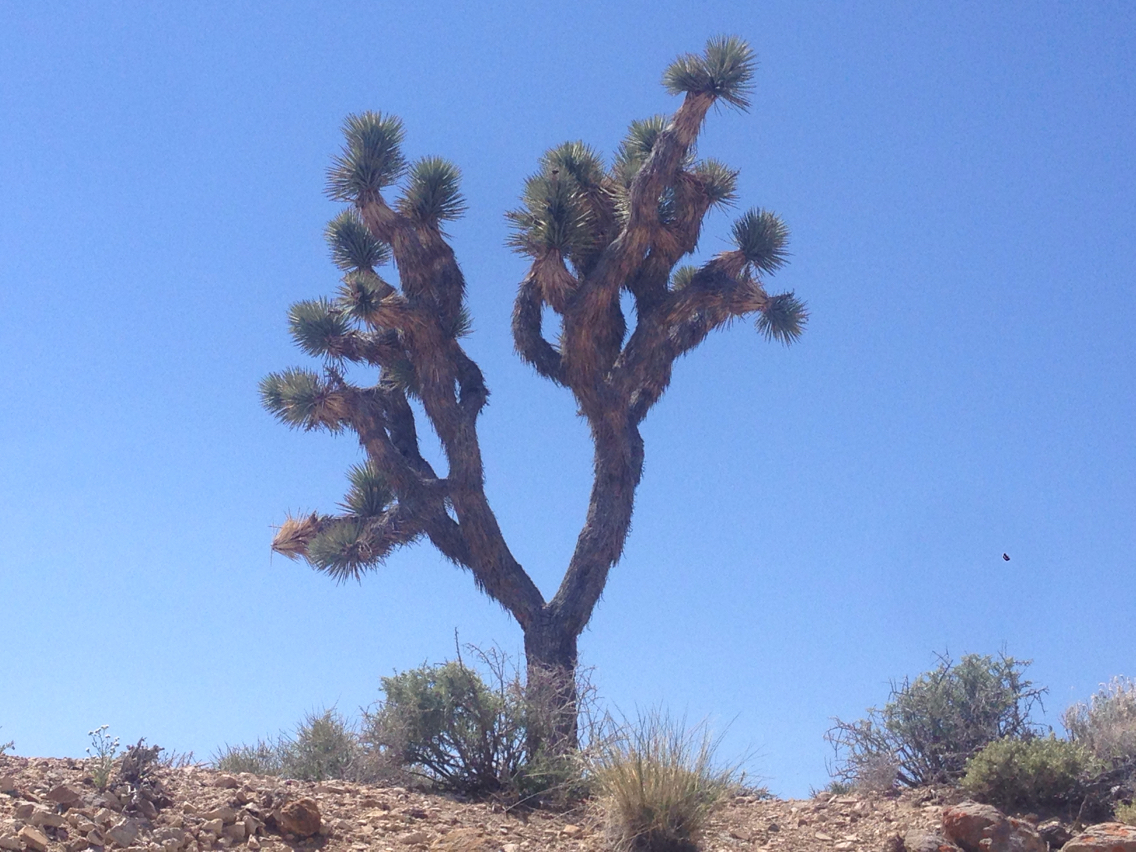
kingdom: Plantae
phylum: Tracheophyta
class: Liliopsida
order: Asparagales
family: Asparagaceae
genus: Yucca
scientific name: Yucca brevifolia
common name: Joshua tree
